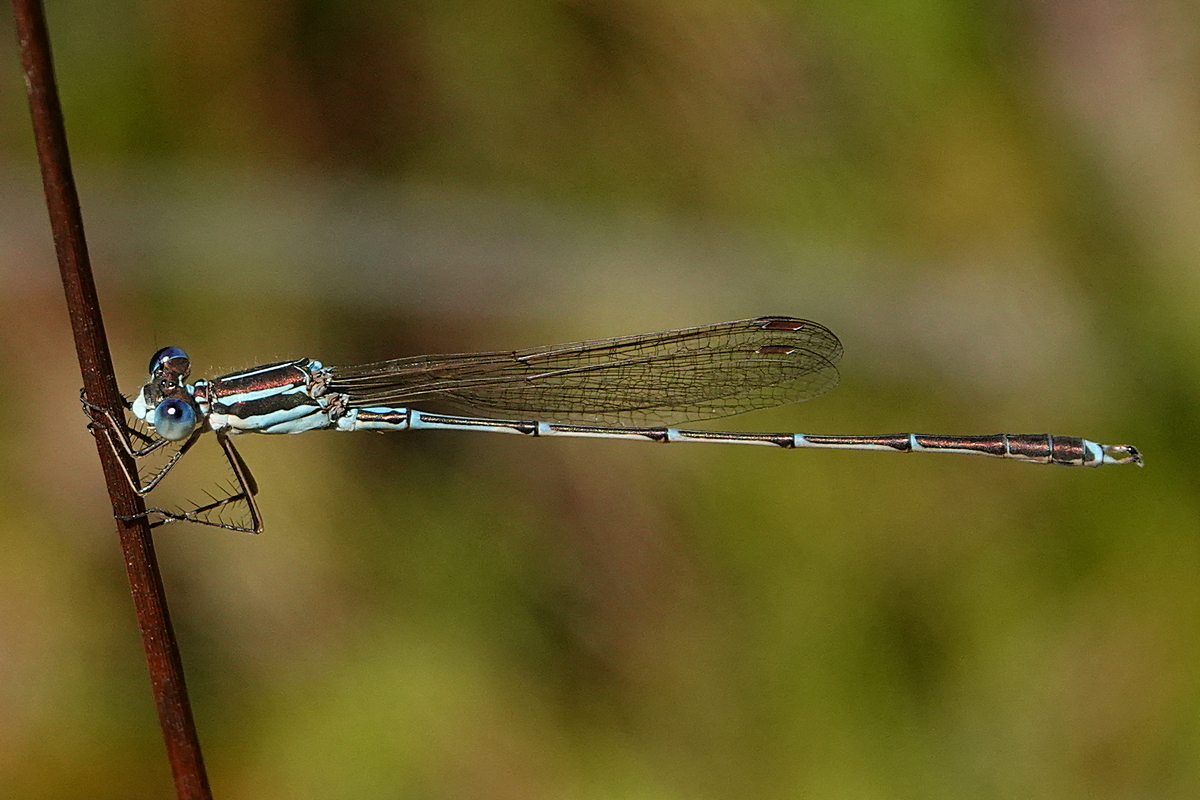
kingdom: Animalia
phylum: Arthropoda
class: Insecta
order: Odonata
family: Lestidae
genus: Austrolestes
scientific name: Austrolestes analis
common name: Slender ringtail
